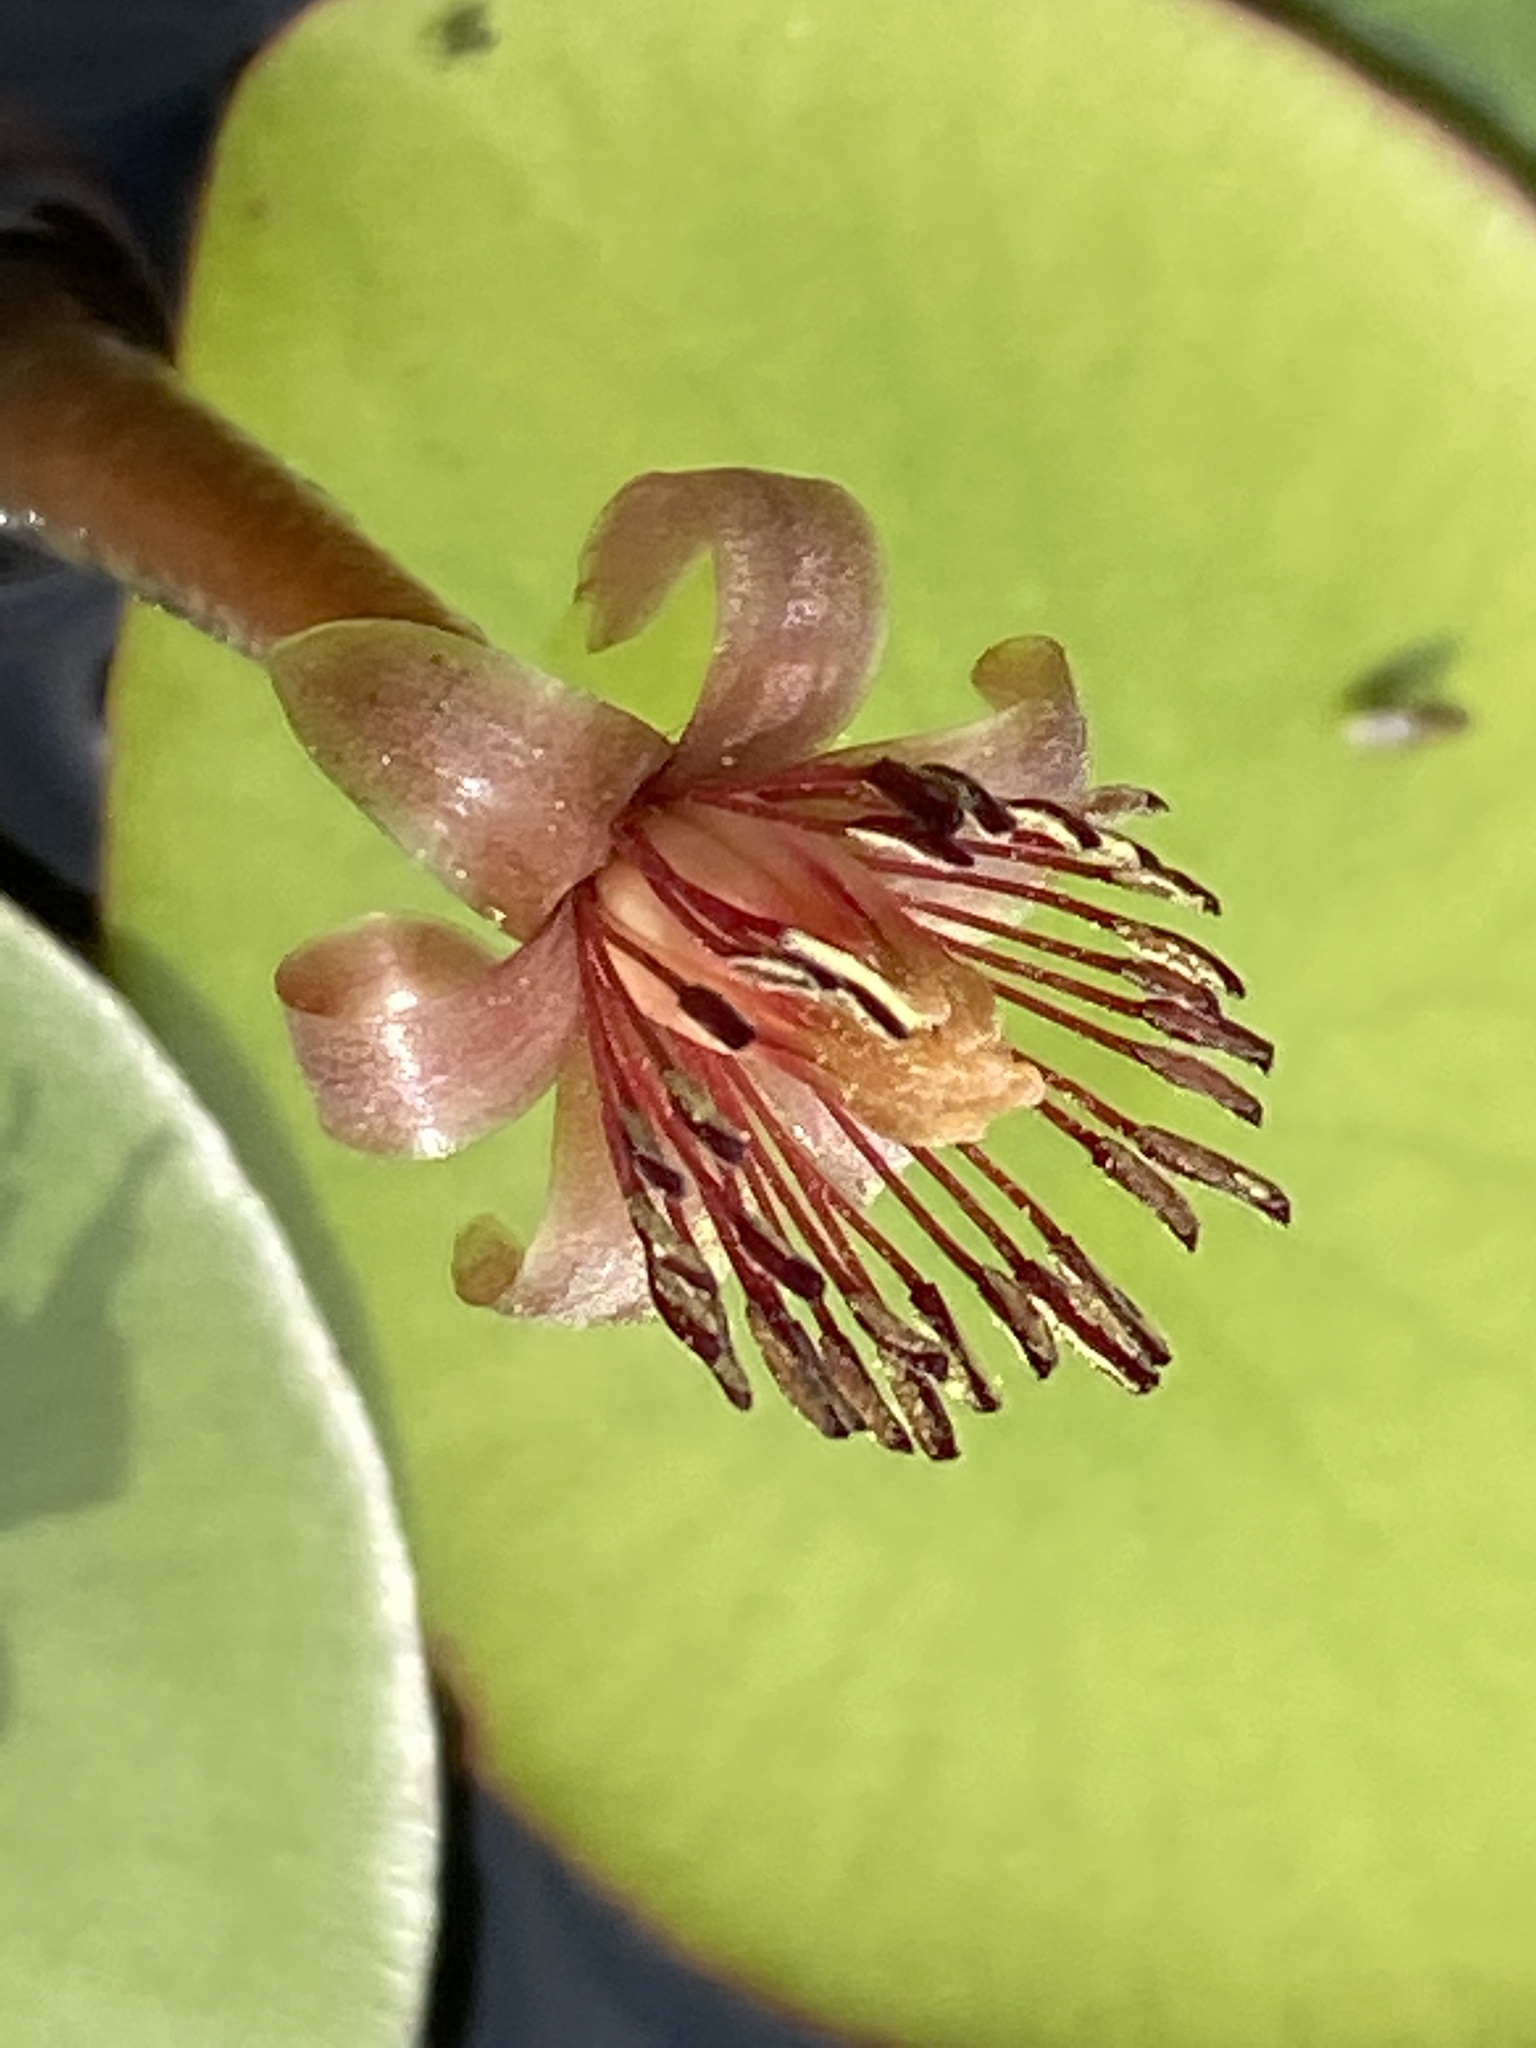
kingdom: Plantae
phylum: Tracheophyta
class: Magnoliopsida
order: Nymphaeales
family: Cabombaceae
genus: Brasenia
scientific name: Brasenia schreberi
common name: Water-shield
